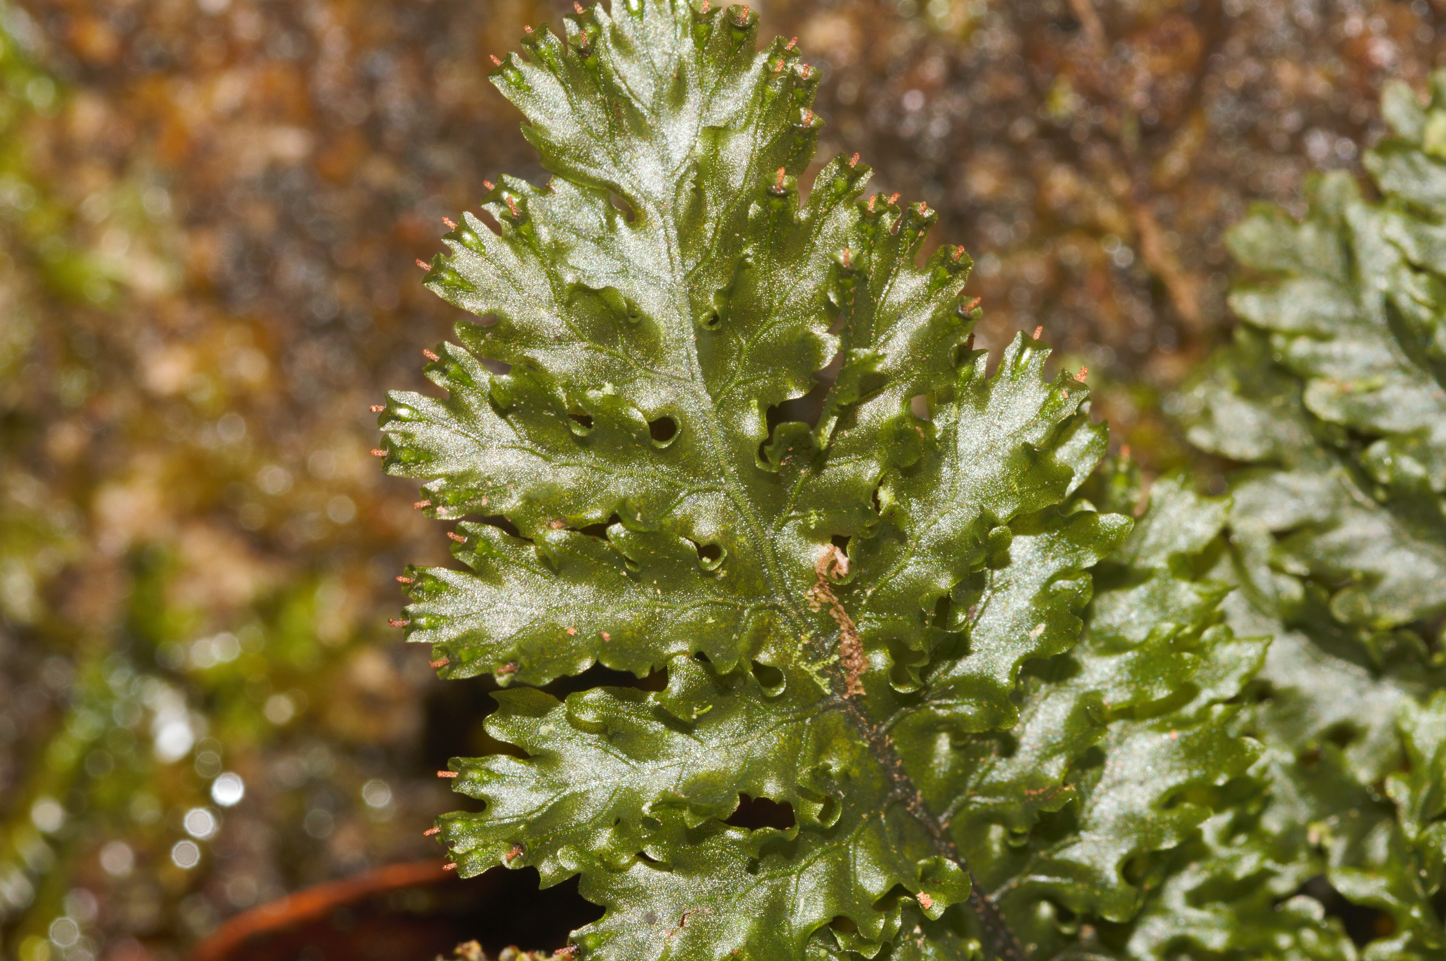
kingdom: Plantae
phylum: Tracheophyta
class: Polypodiopsida
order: Hymenophyllales
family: Hymenophyllaceae
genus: Trichomanes
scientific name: Trichomanes arbuscula
